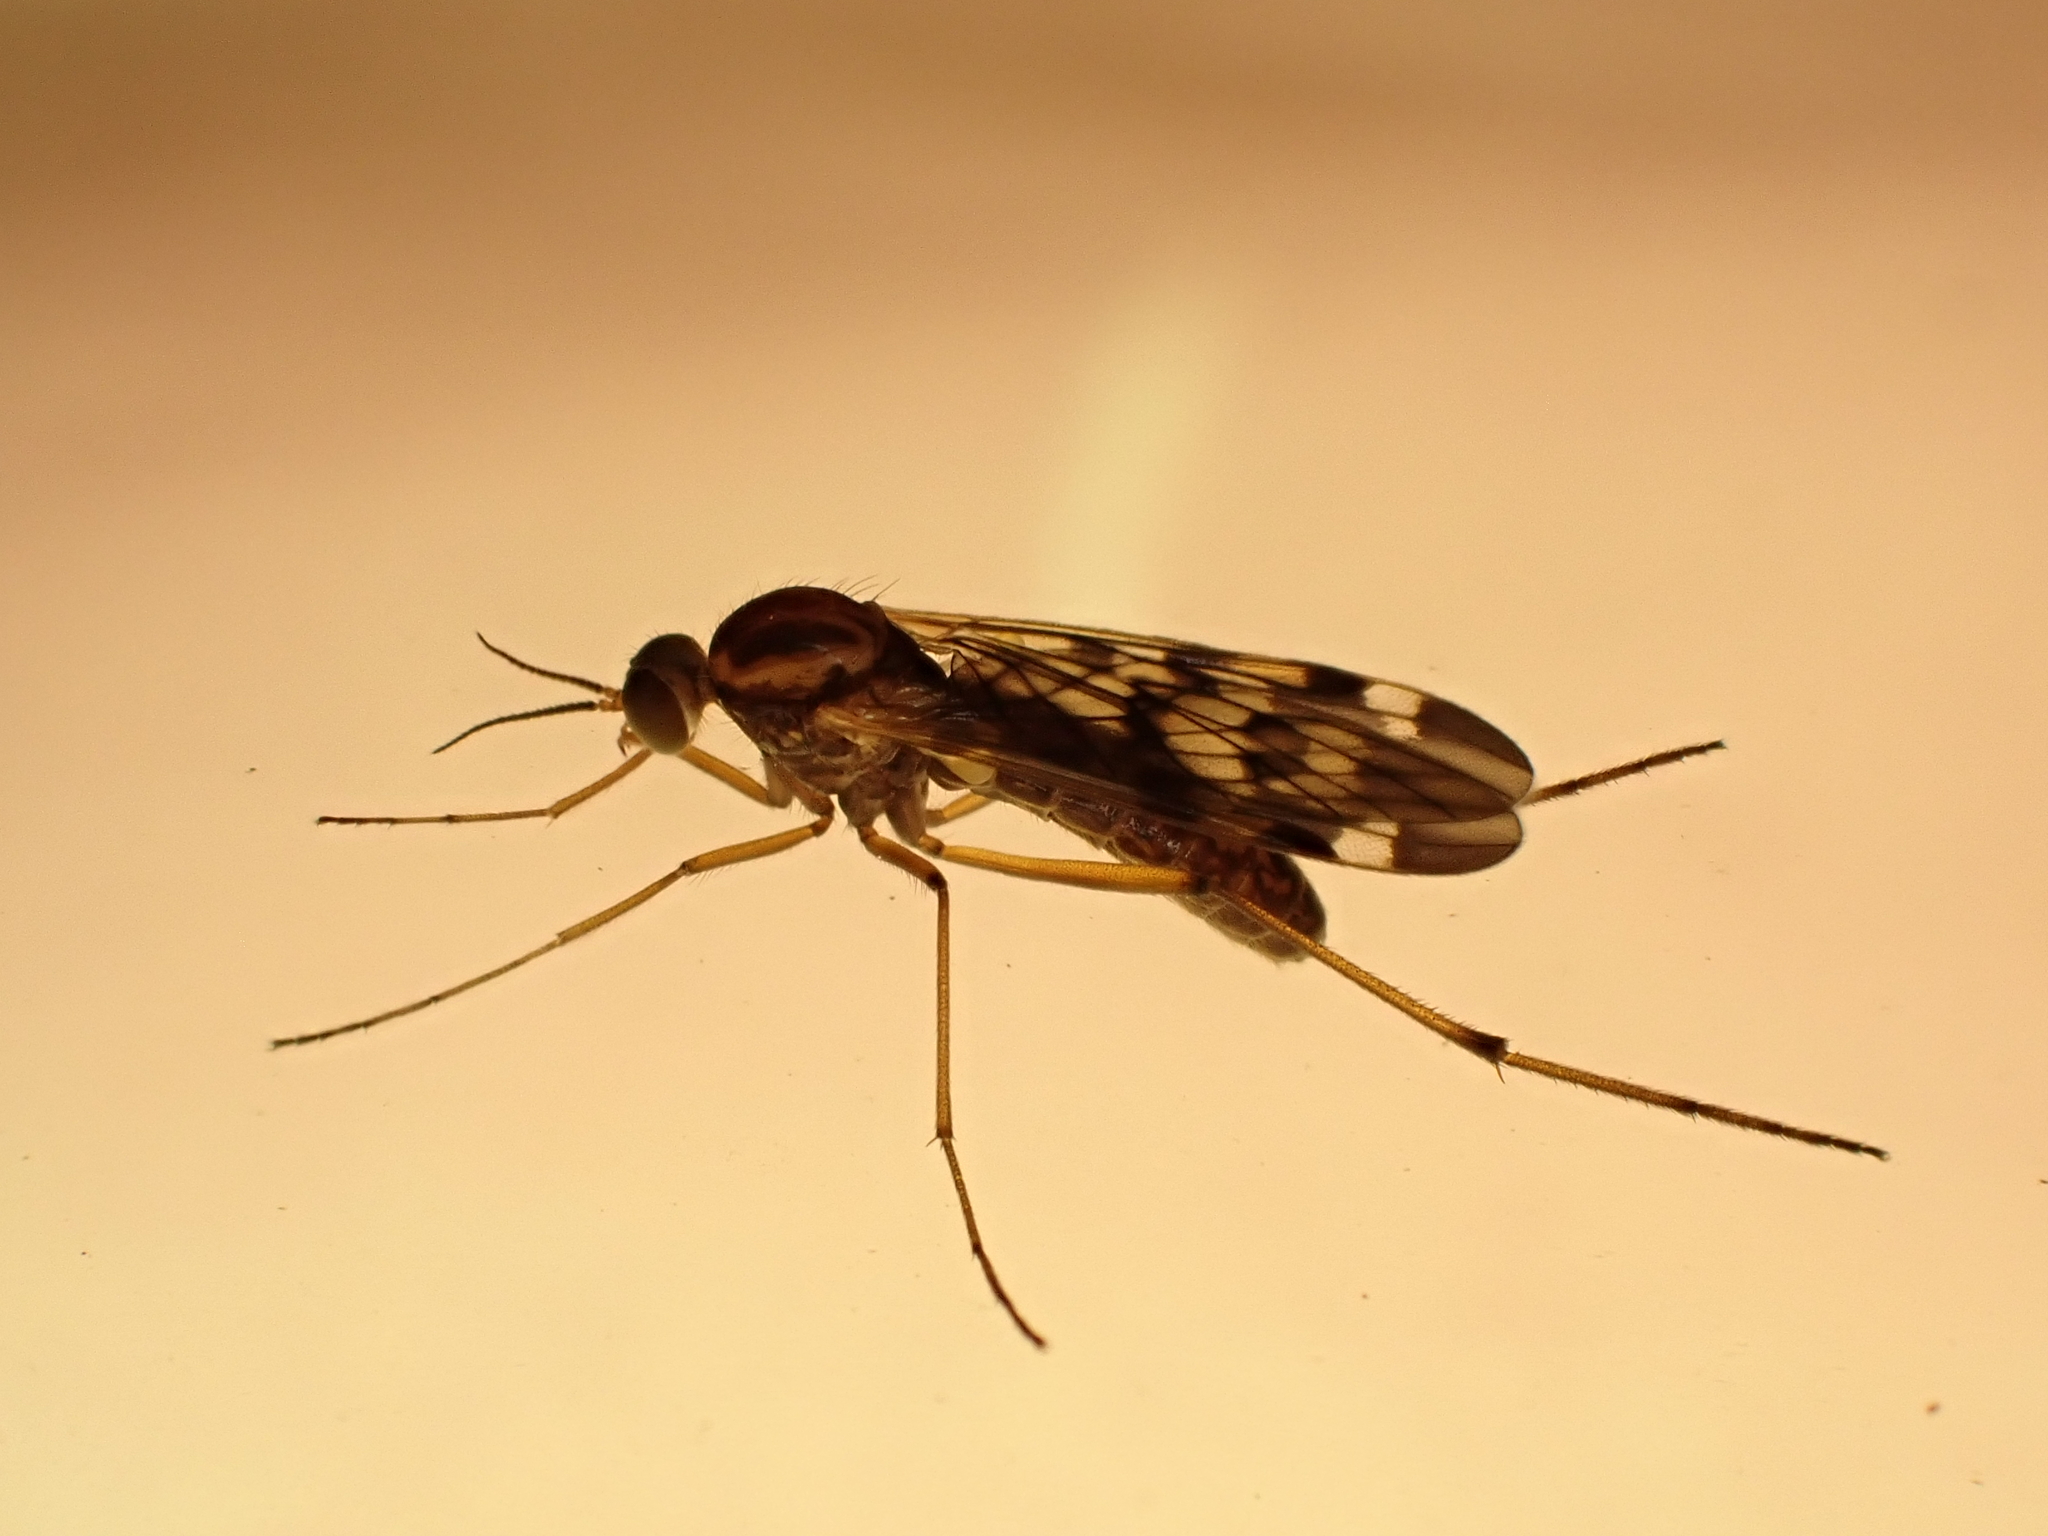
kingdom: Animalia
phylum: Arthropoda
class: Insecta
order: Diptera
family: Anisopodidae
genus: Sylvicola
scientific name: Sylvicola notatus
